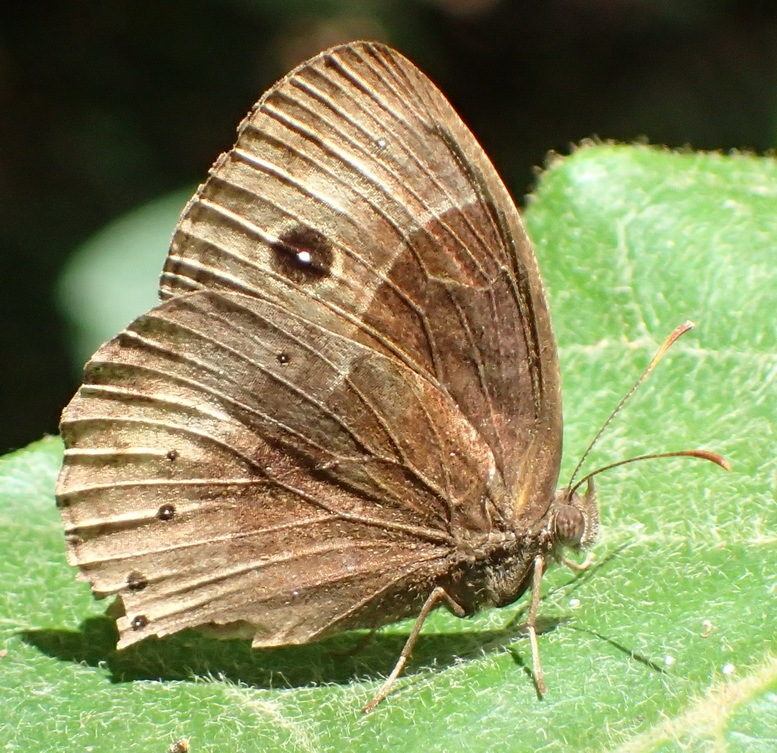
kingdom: Animalia
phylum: Arthropoda
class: Insecta
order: Lepidoptera
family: Nymphalidae
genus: Mycalesis
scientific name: Mycalesis rhacotis
